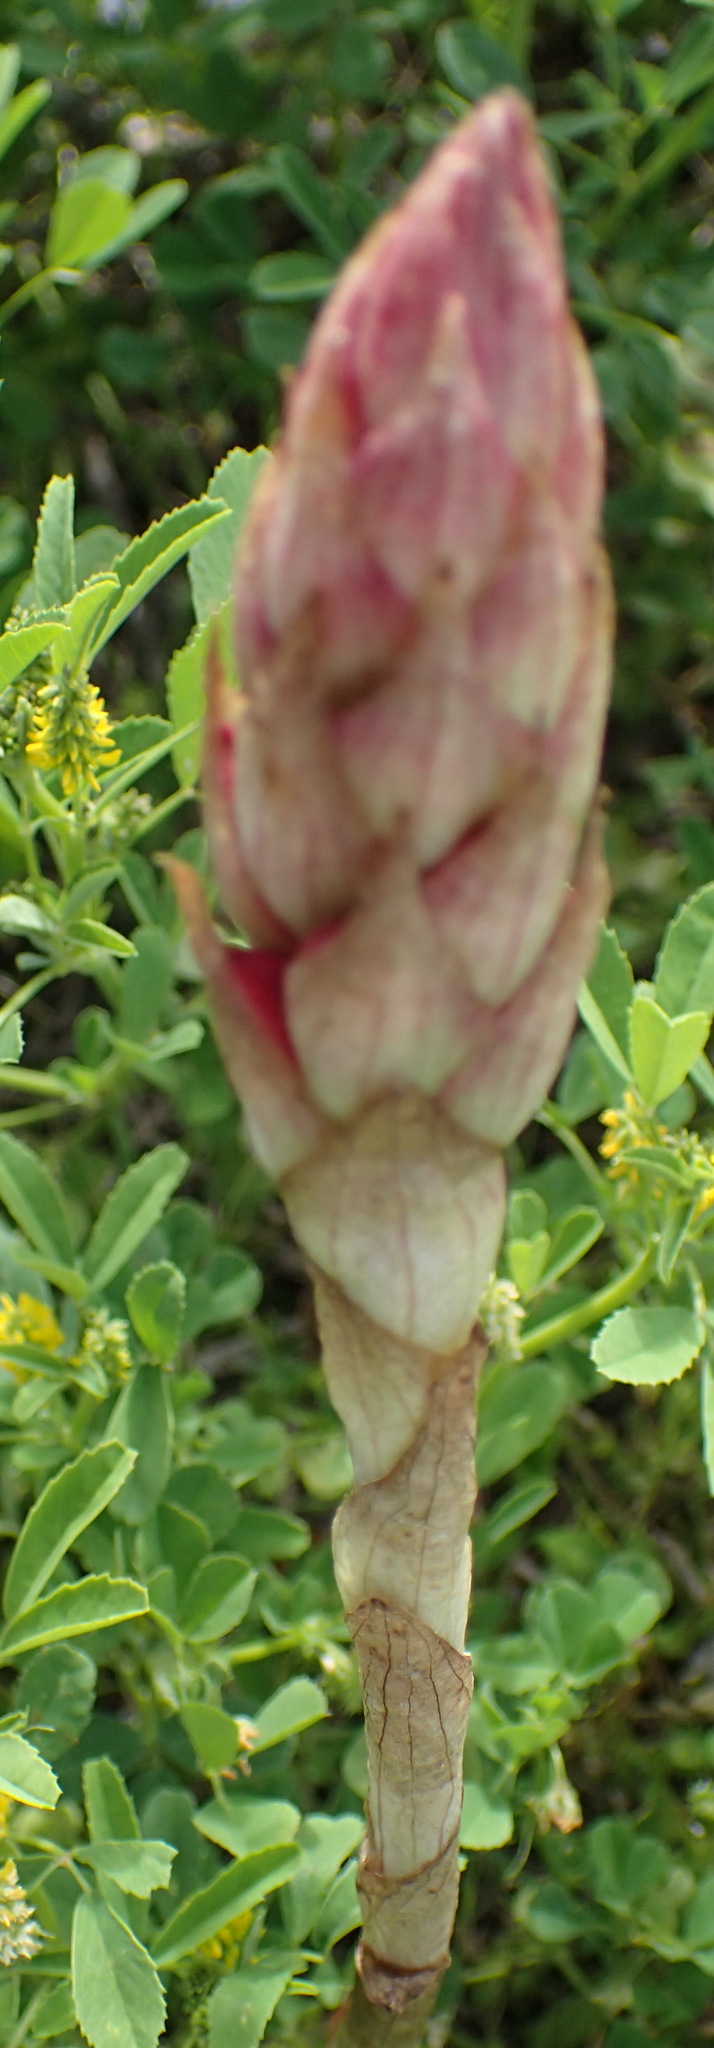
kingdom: Plantae
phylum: Tracheophyta
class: Liliopsida
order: Asparagales
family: Orchidaceae
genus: Satyrium
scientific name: Satyrium princeps
